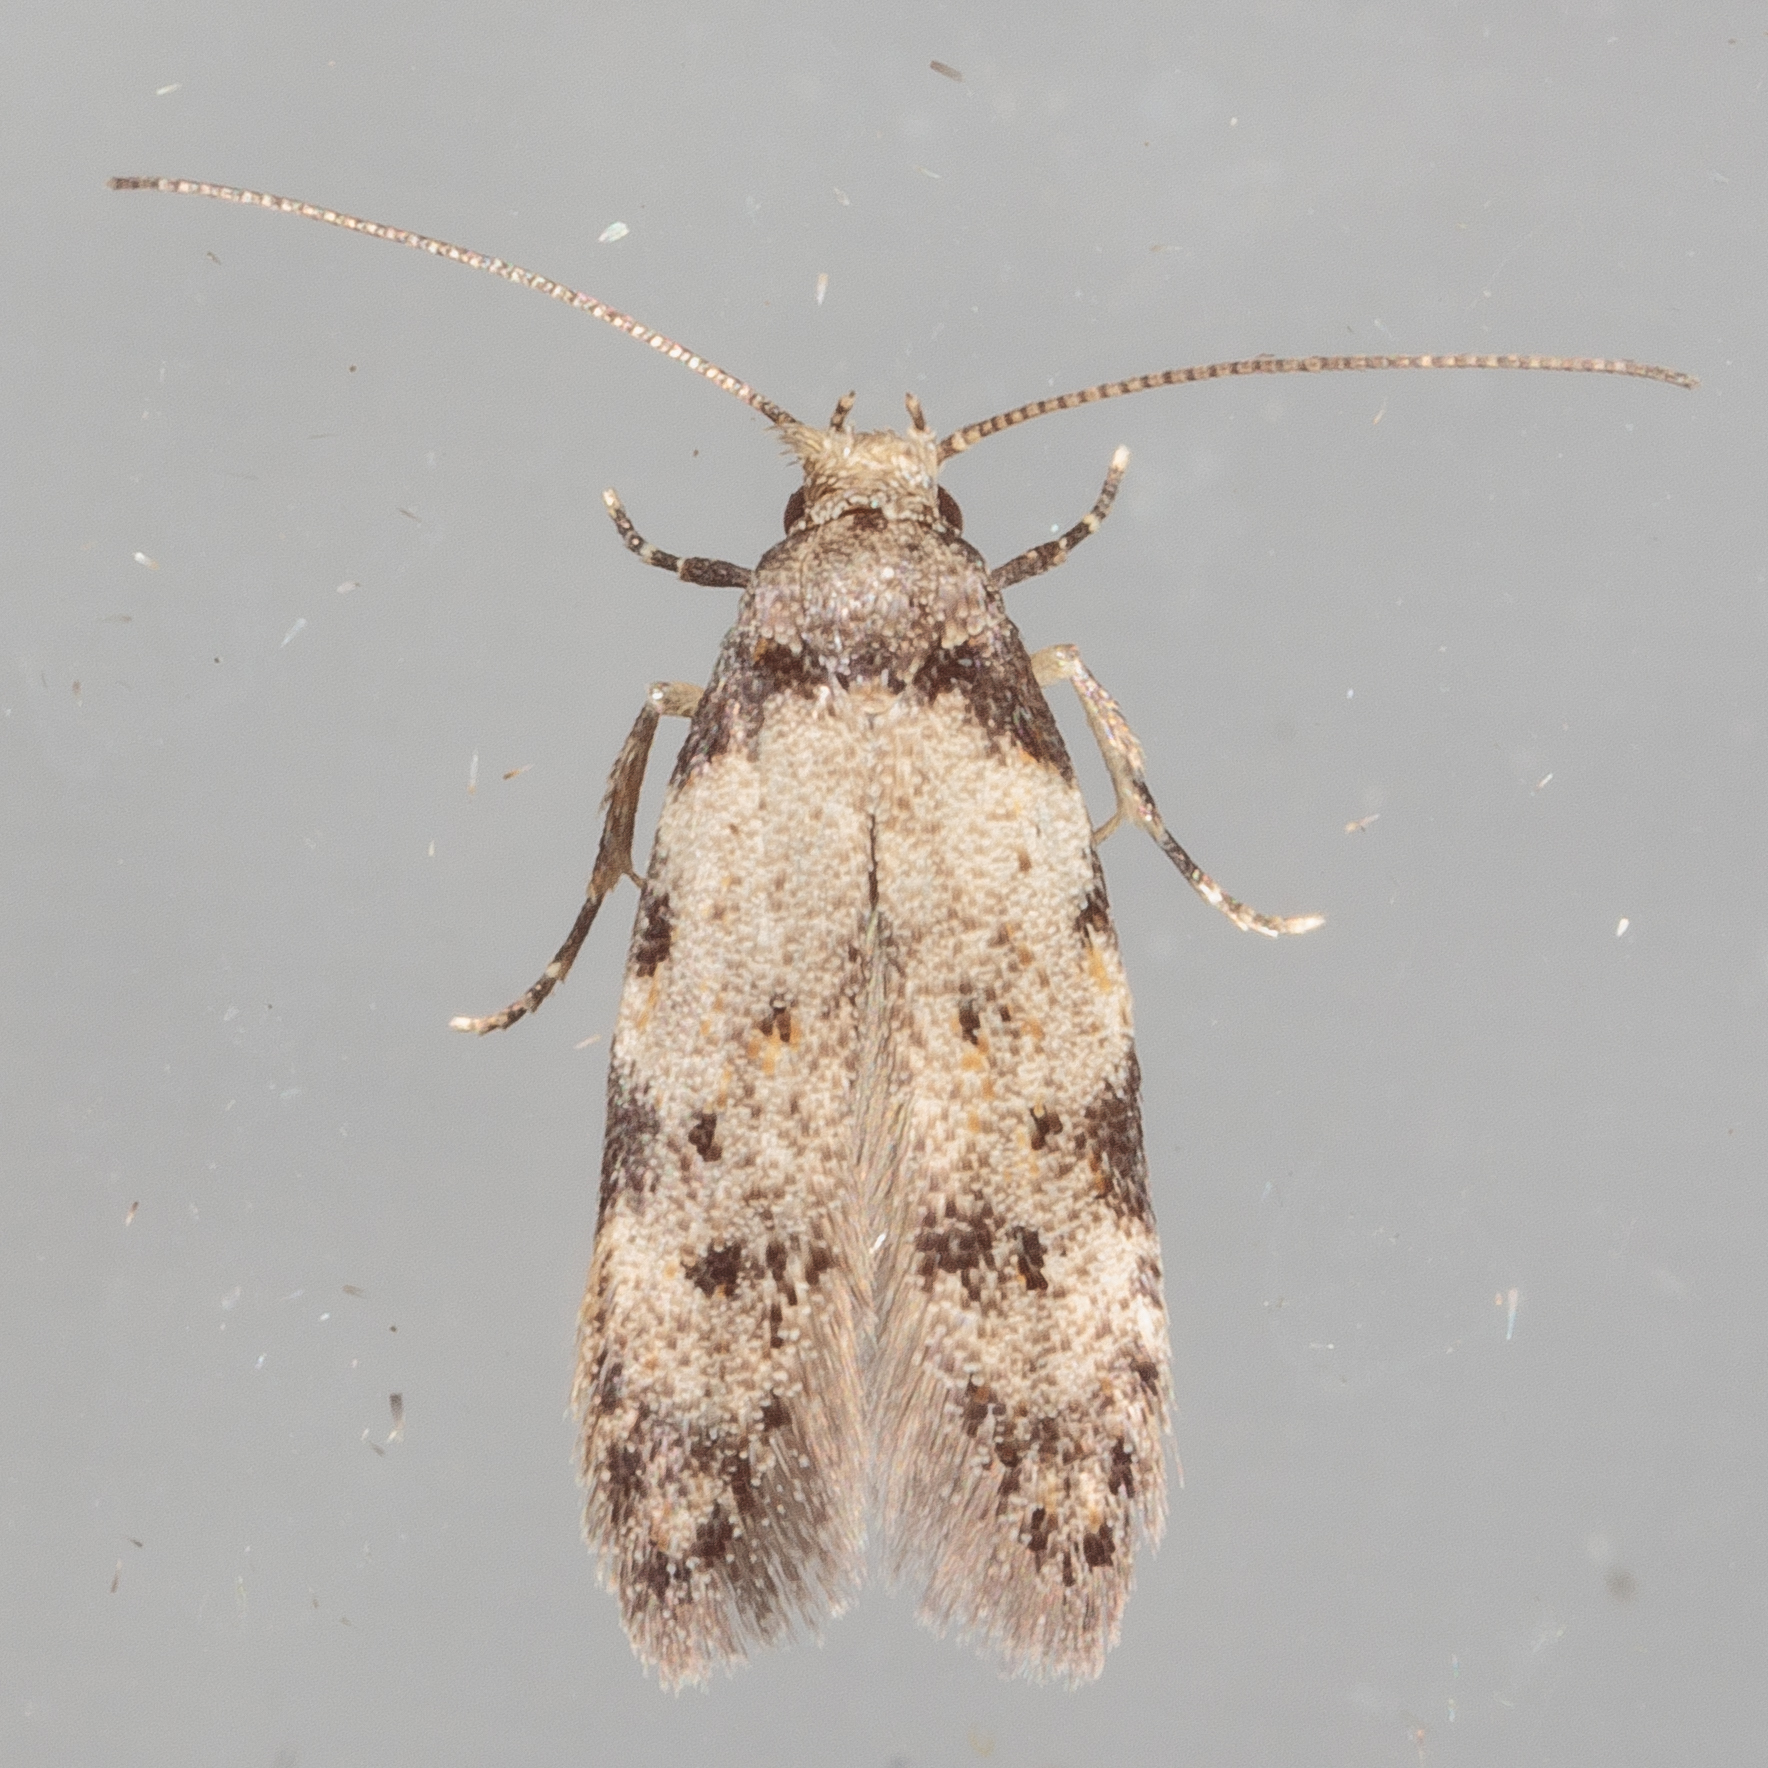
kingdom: Animalia
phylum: Arthropoda
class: Insecta
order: Lepidoptera
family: Autostichidae
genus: Taygete
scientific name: Taygete attributella
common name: Triangle-marked twirler moth
